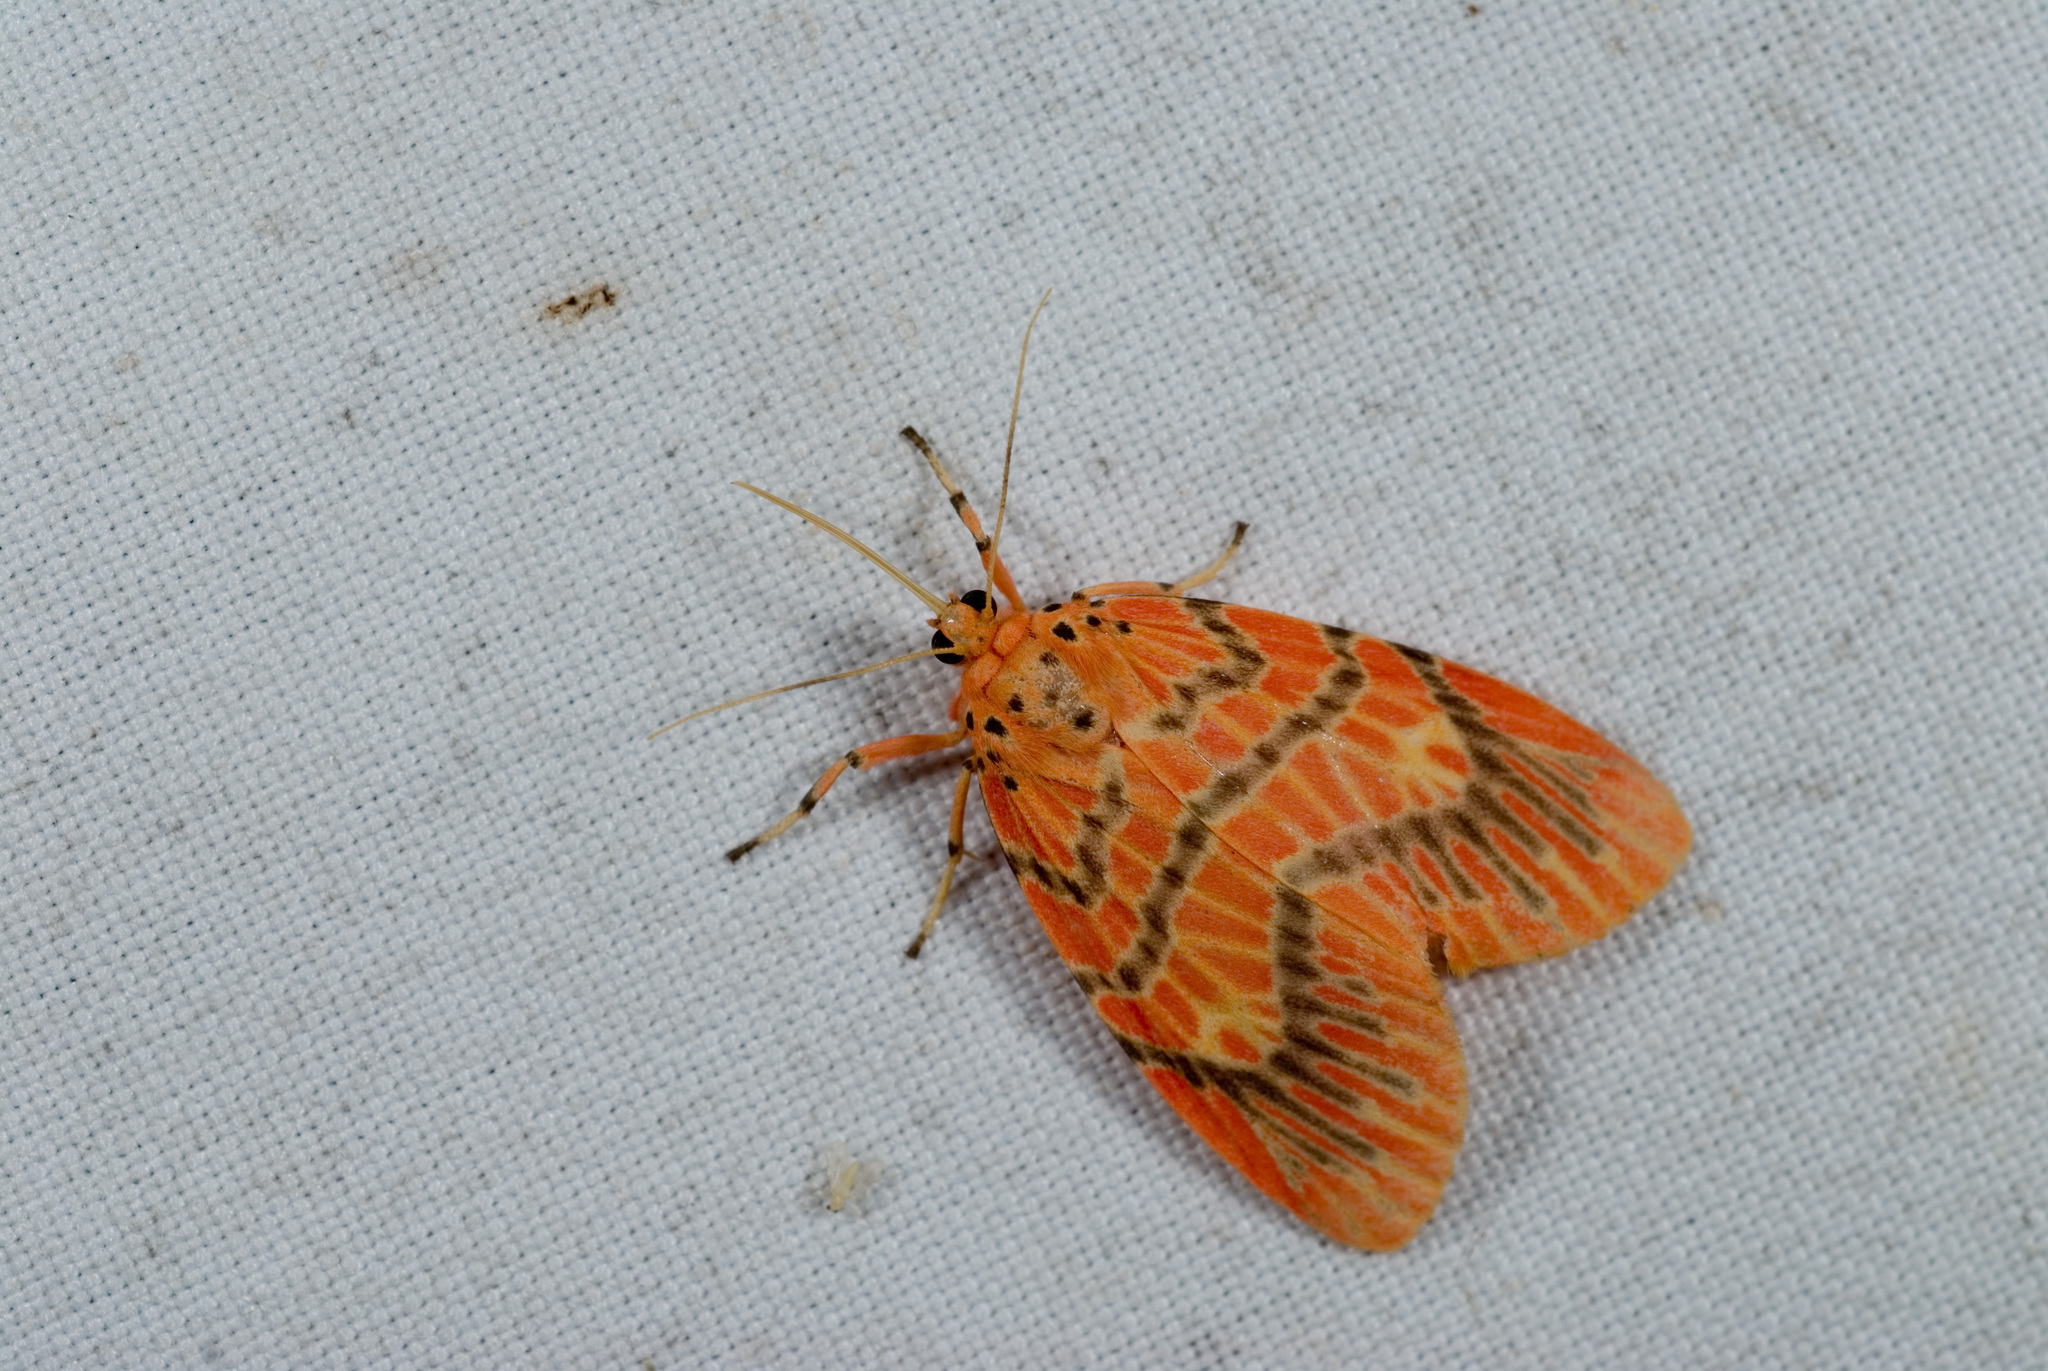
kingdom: Animalia
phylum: Arthropoda
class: Insecta
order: Lepidoptera
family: Erebidae
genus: Barsine
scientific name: Barsine sauteri
